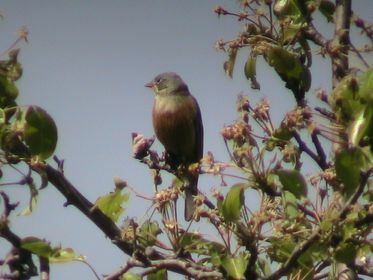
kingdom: Animalia
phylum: Chordata
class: Aves
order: Passeriformes
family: Emberizidae
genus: Emberiza
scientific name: Emberiza hortulana
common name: Ortolan bunting
